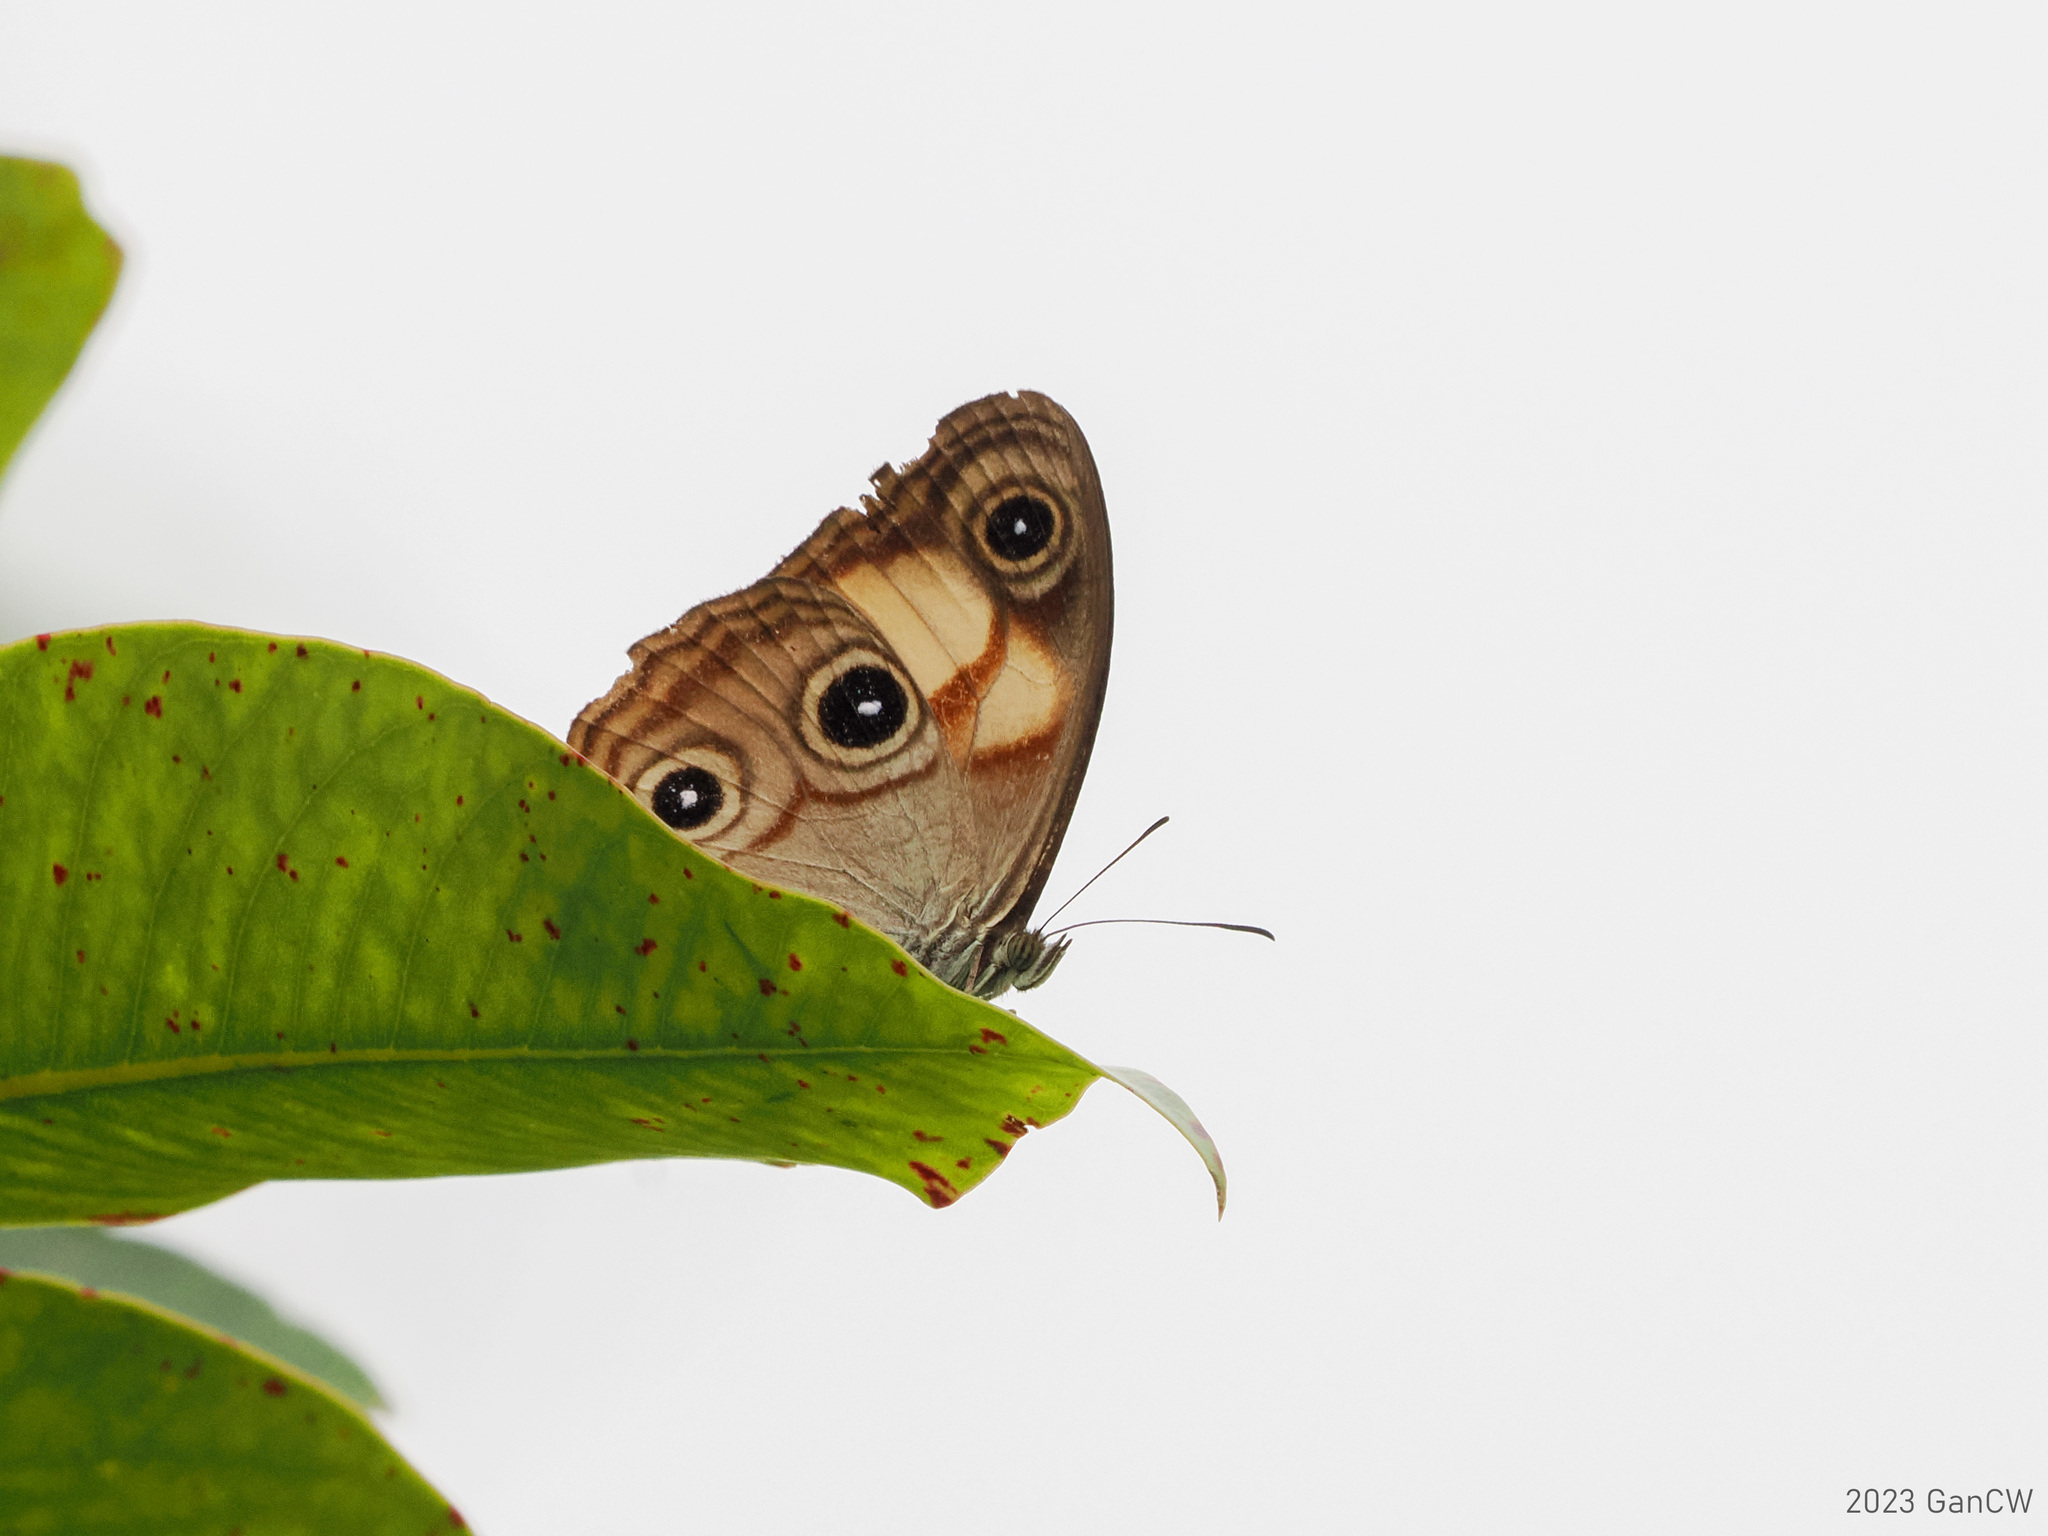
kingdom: Animalia
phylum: Arthropoda
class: Insecta
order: Lepidoptera
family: Nymphalidae
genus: Mycalesis
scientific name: Mycalesis
